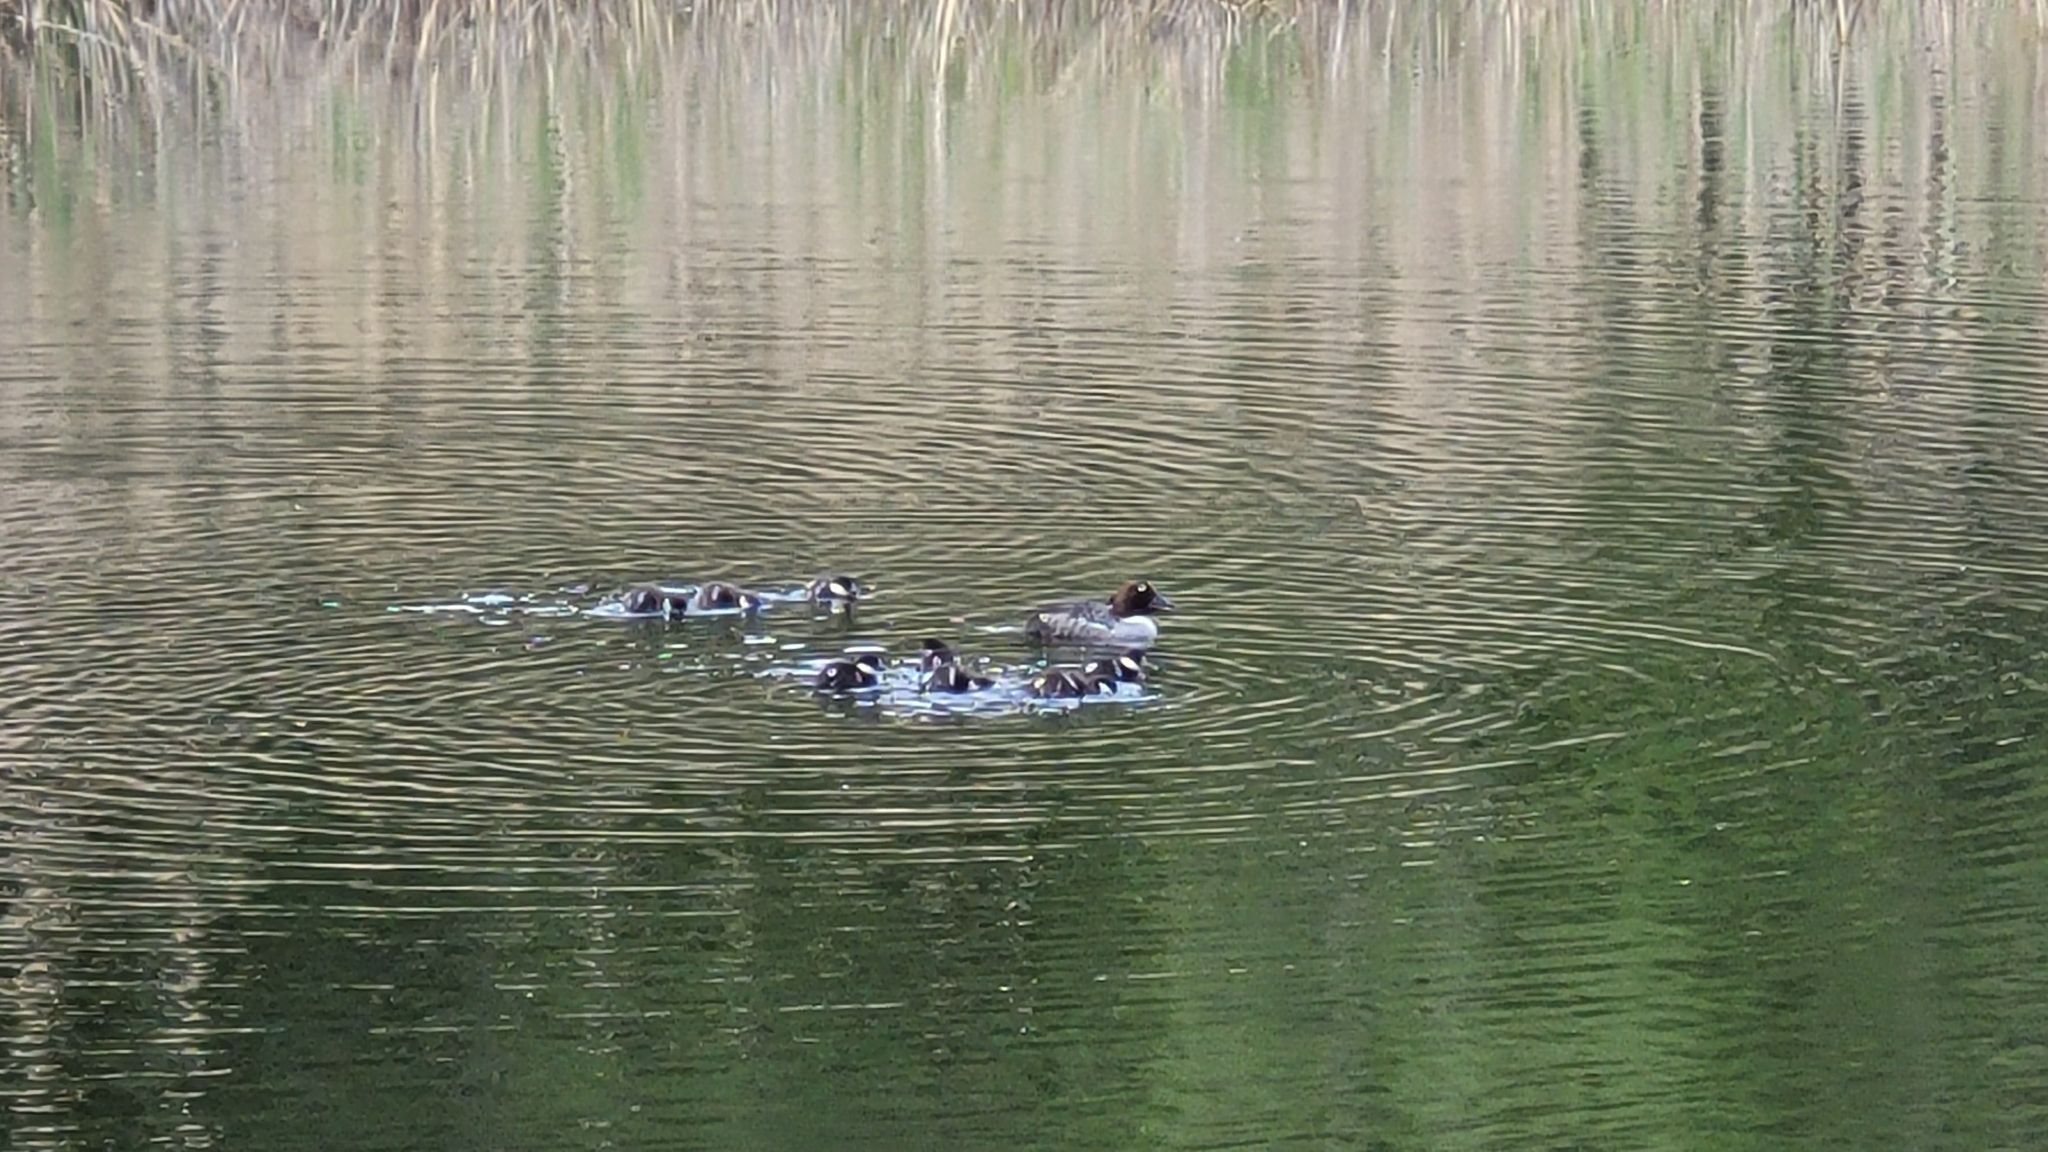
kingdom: Animalia
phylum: Chordata
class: Aves
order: Anseriformes
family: Anatidae
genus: Bucephala
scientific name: Bucephala clangula
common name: Common goldeneye
